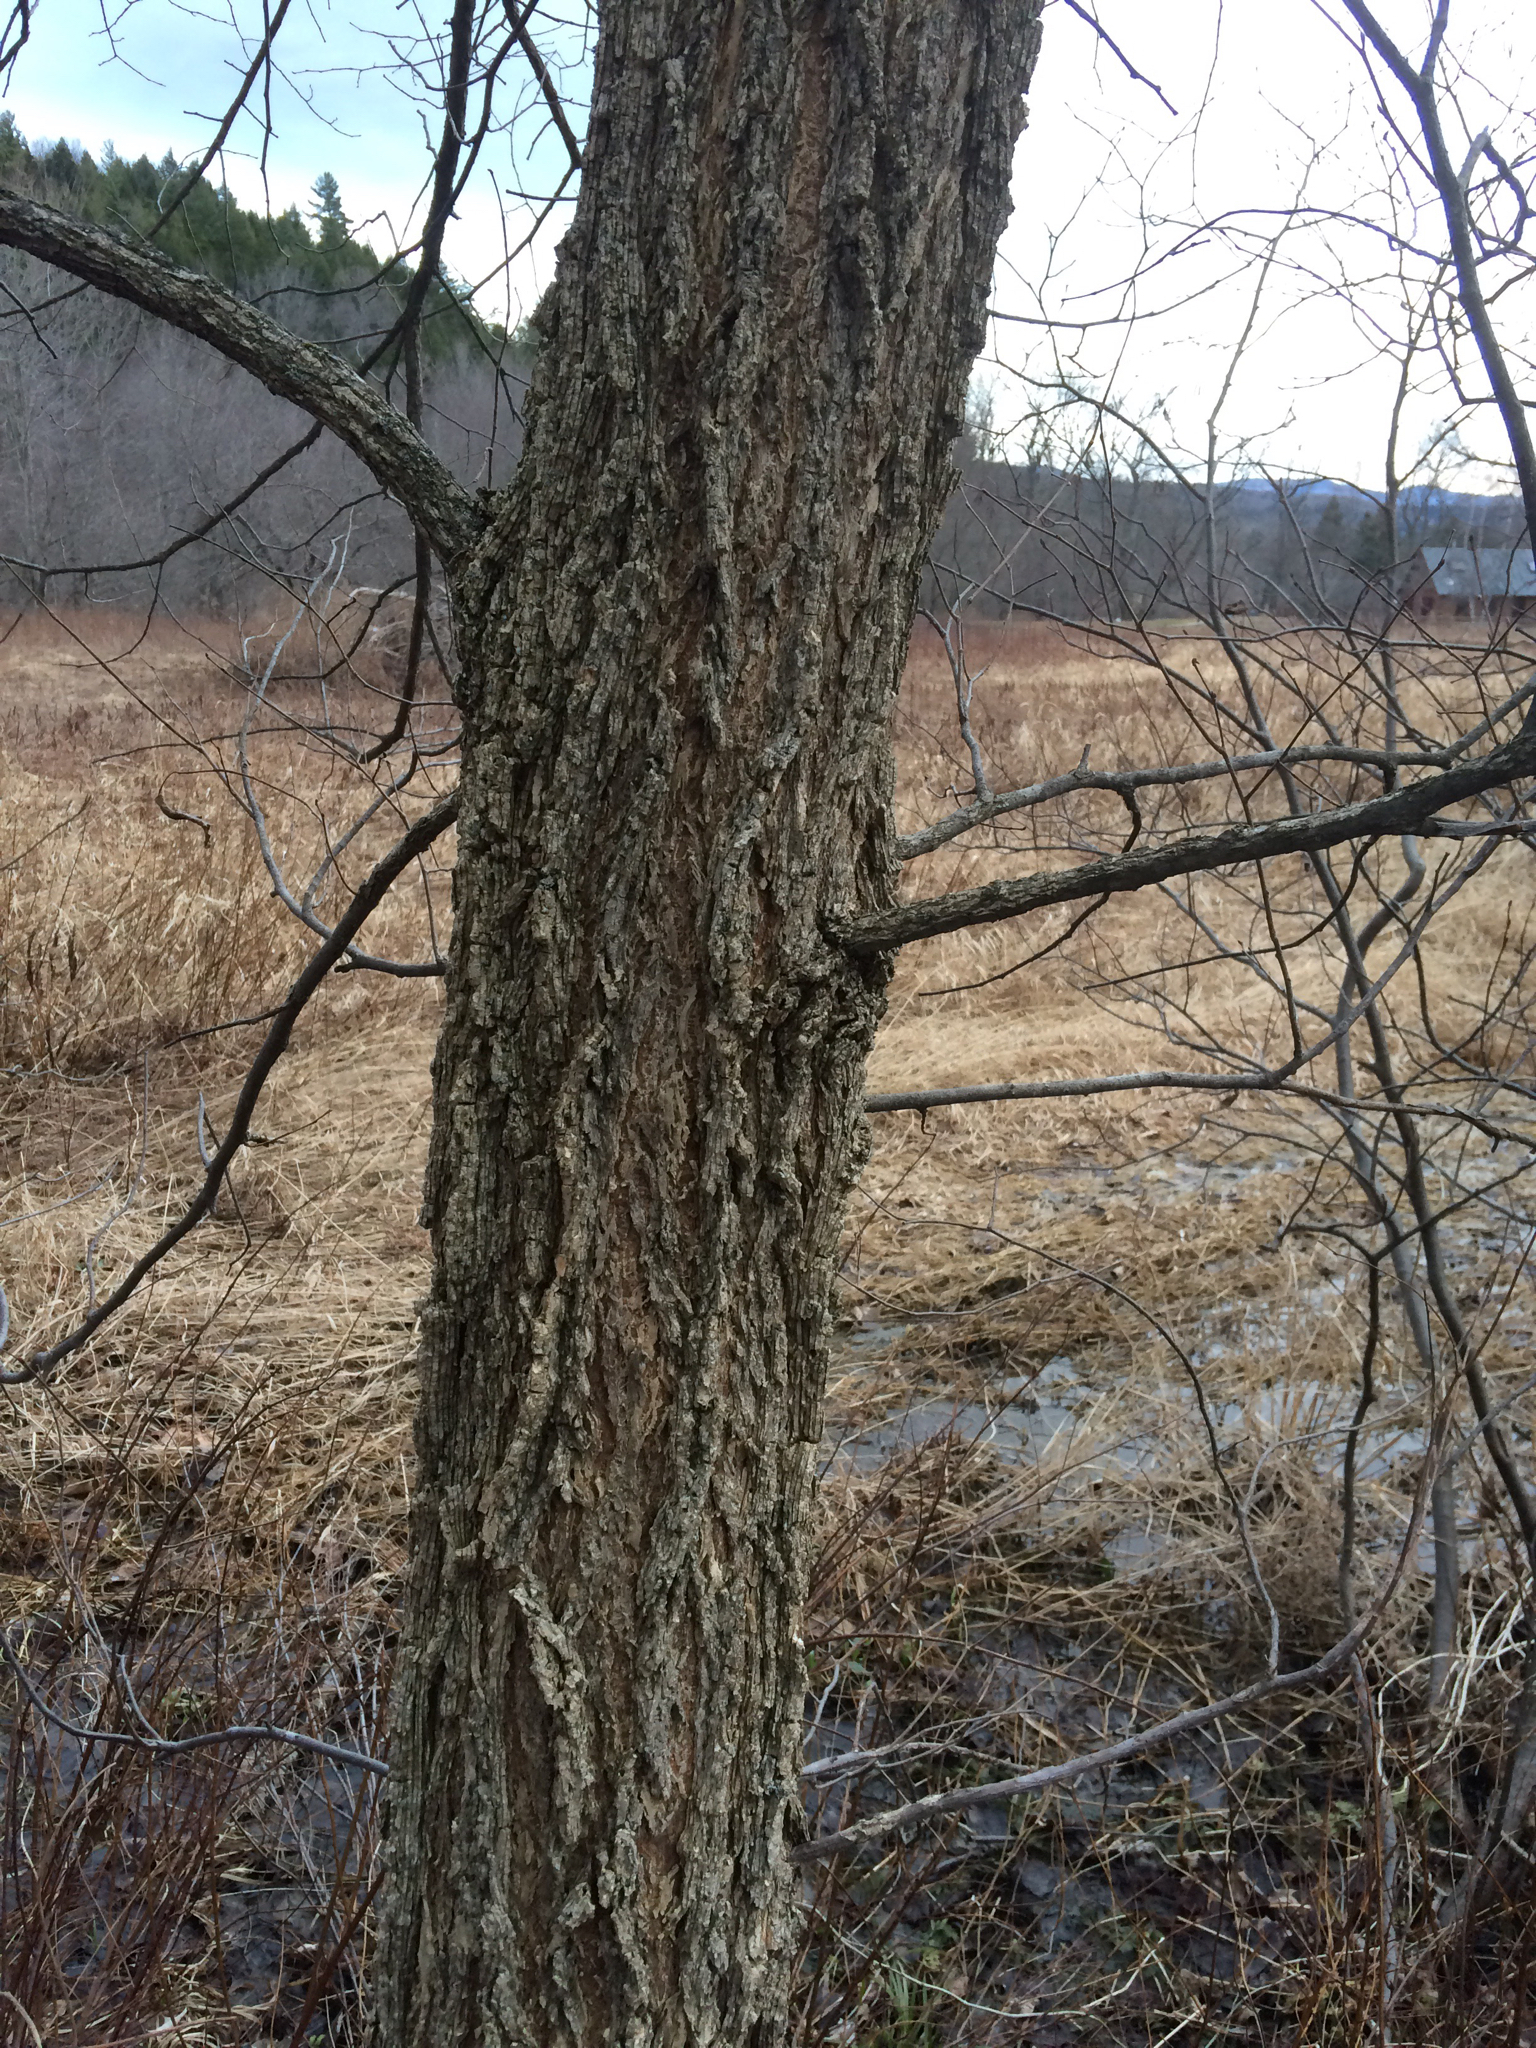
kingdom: Plantae
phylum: Tracheophyta
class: Magnoliopsida
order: Rosales
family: Ulmaceae
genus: Ulmus
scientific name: Ulmus americana
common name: American elm
